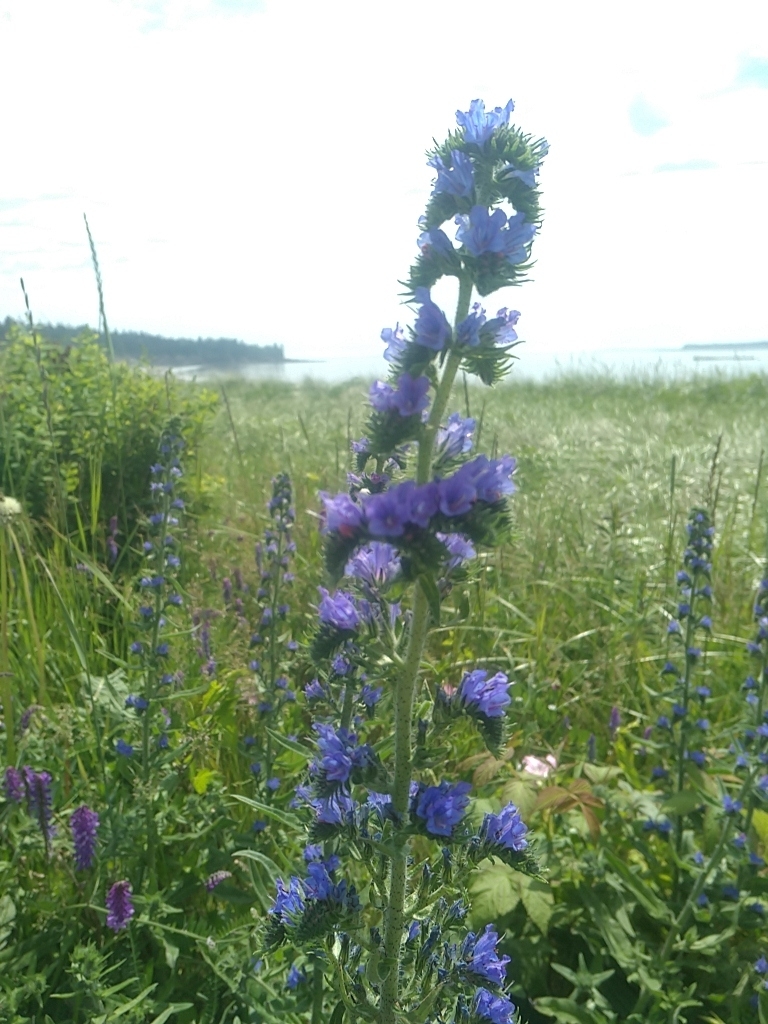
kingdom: Plantae
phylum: Tracheophyta
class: Magnoliopsida
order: Boraginales
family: Boraginaceae
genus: Echium
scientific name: Echium vulgare
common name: Common viper's bugloss
